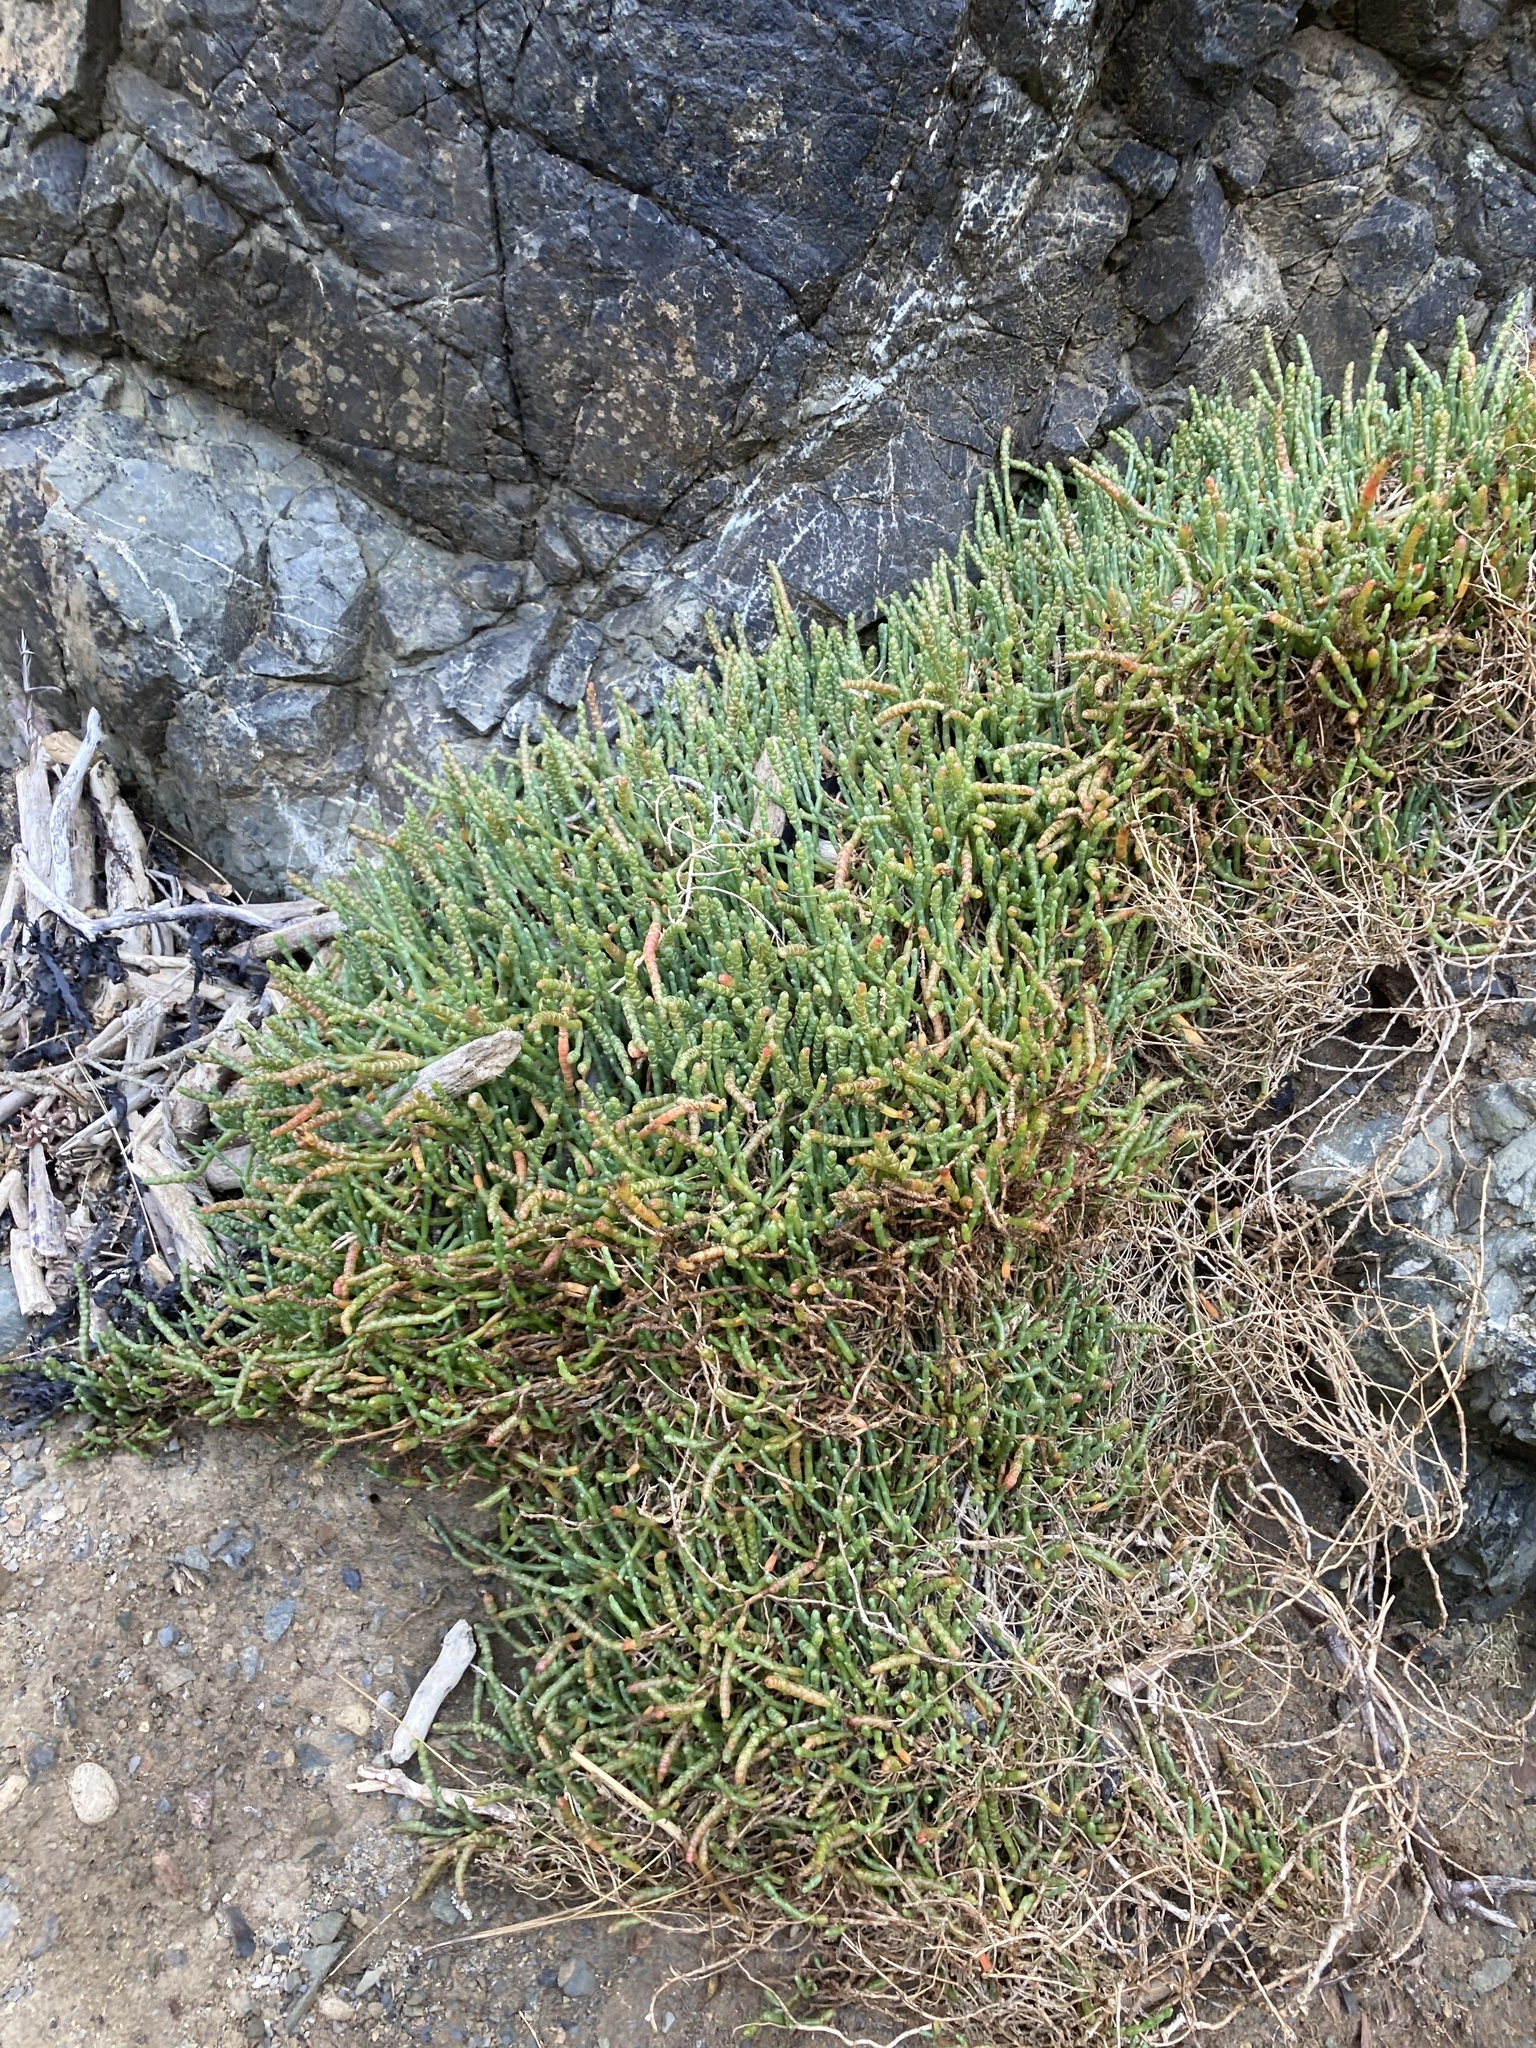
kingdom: Plantae
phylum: Tracheophyta
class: Magnoliopsida
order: Caryophyllales
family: Amaranthaceae
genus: Salicornia
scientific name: Salicornia quinqueflora
